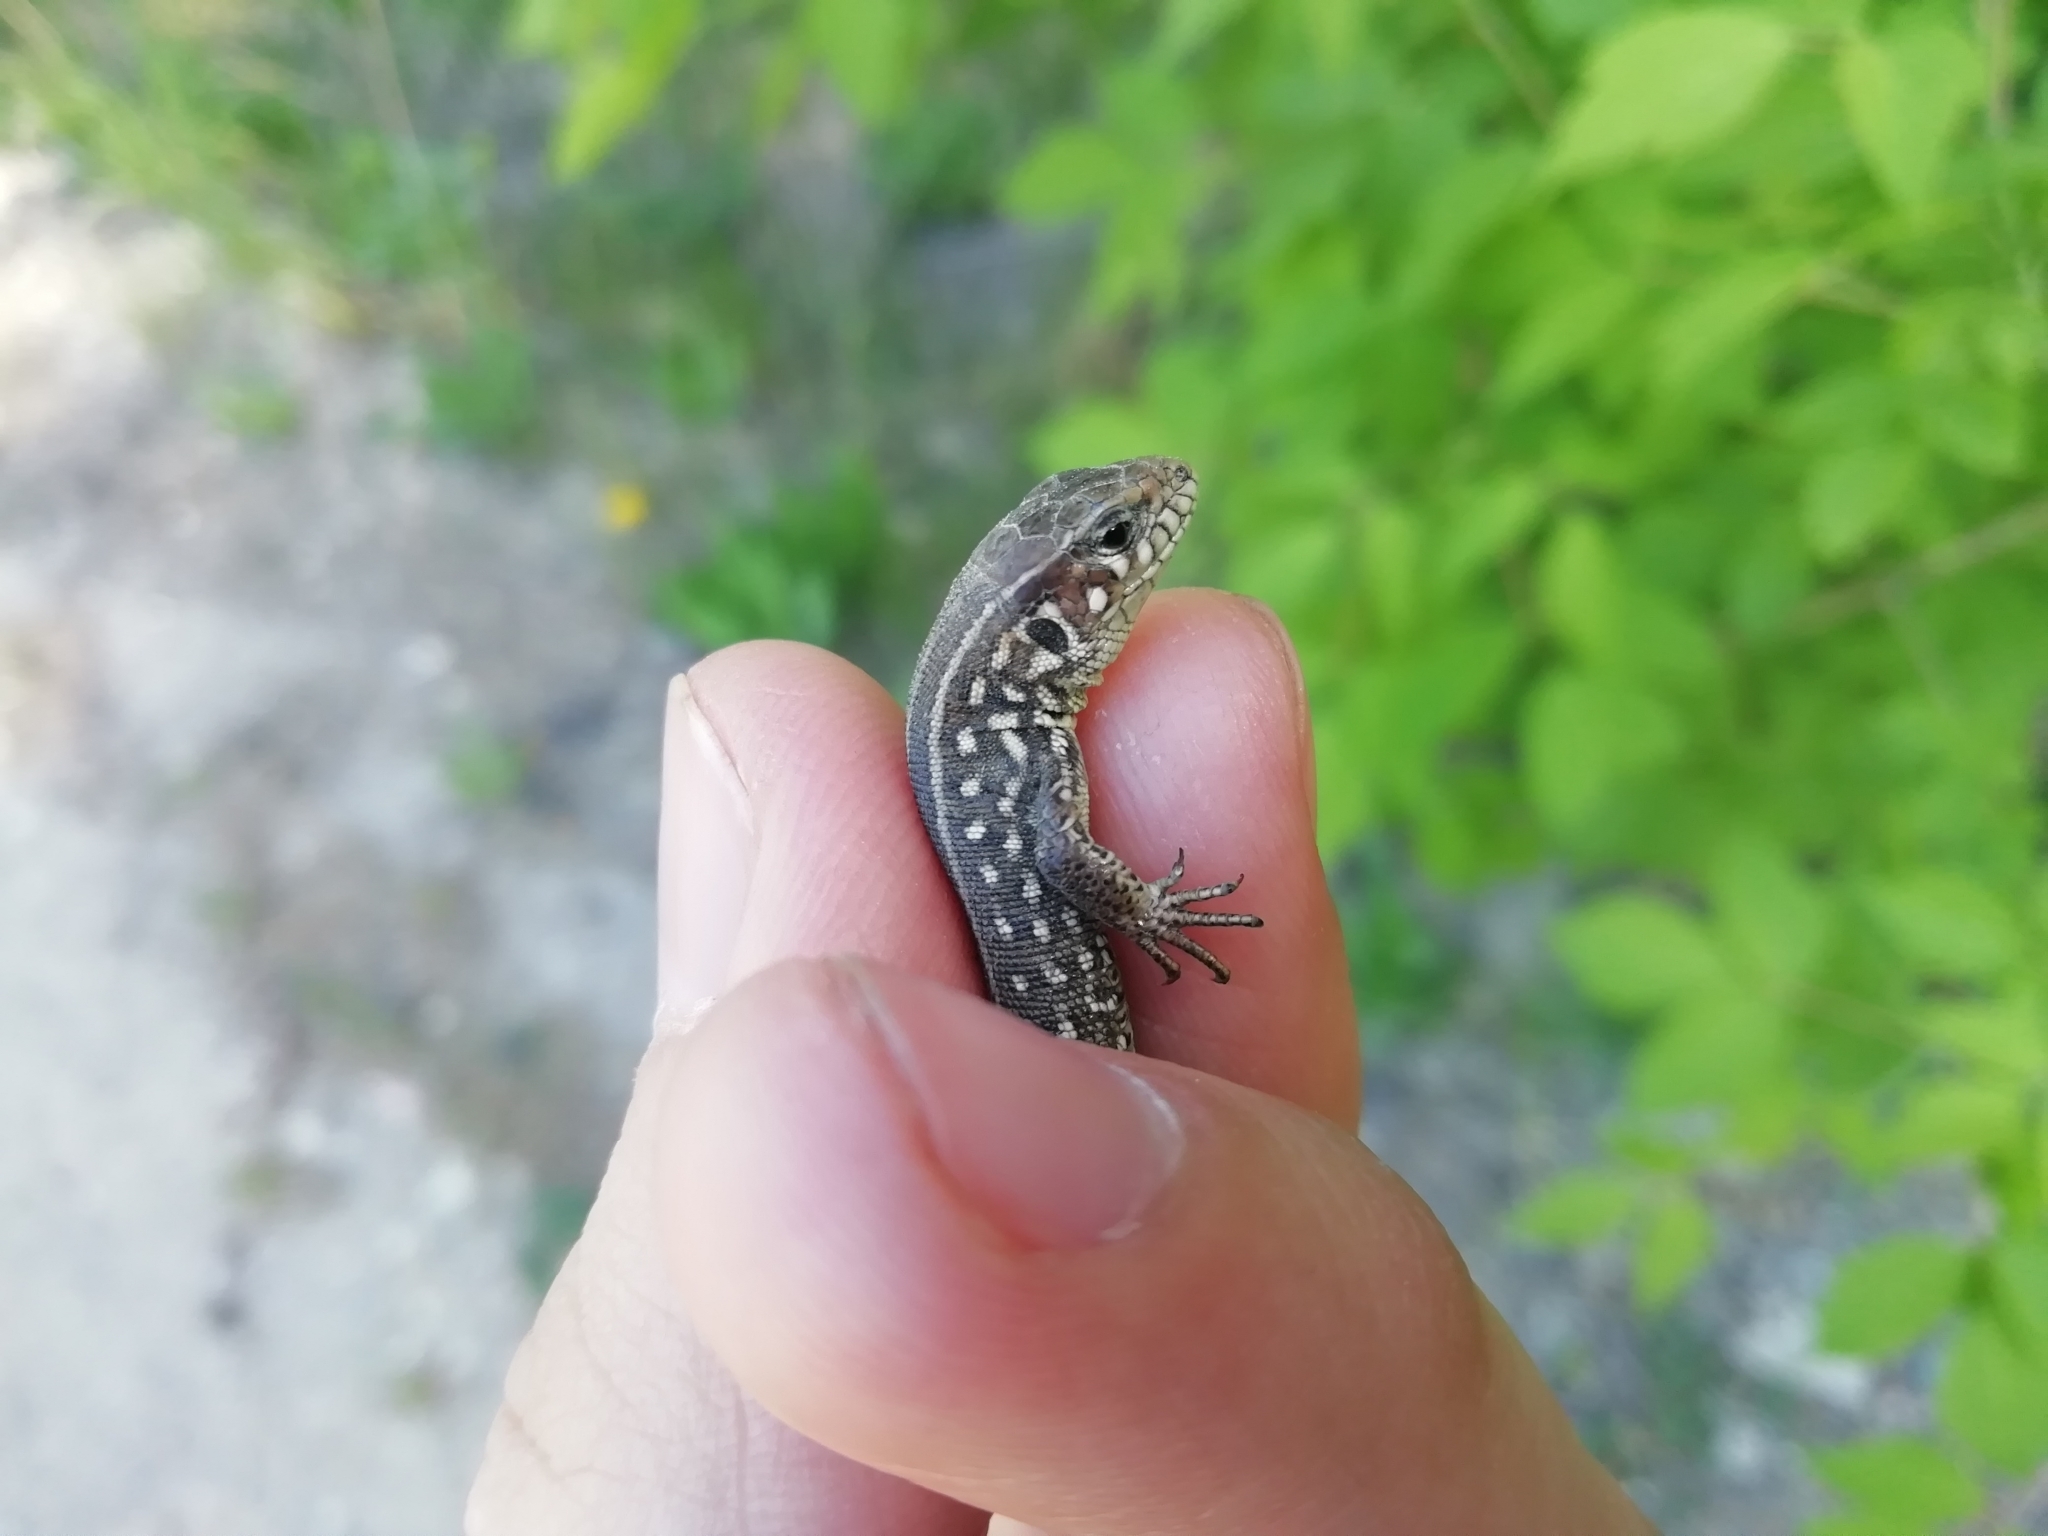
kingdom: Animalia
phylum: Chordata
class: Squamata
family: Lacertidae
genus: Lacerta
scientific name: Lacerta agilis
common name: Sand lizard
